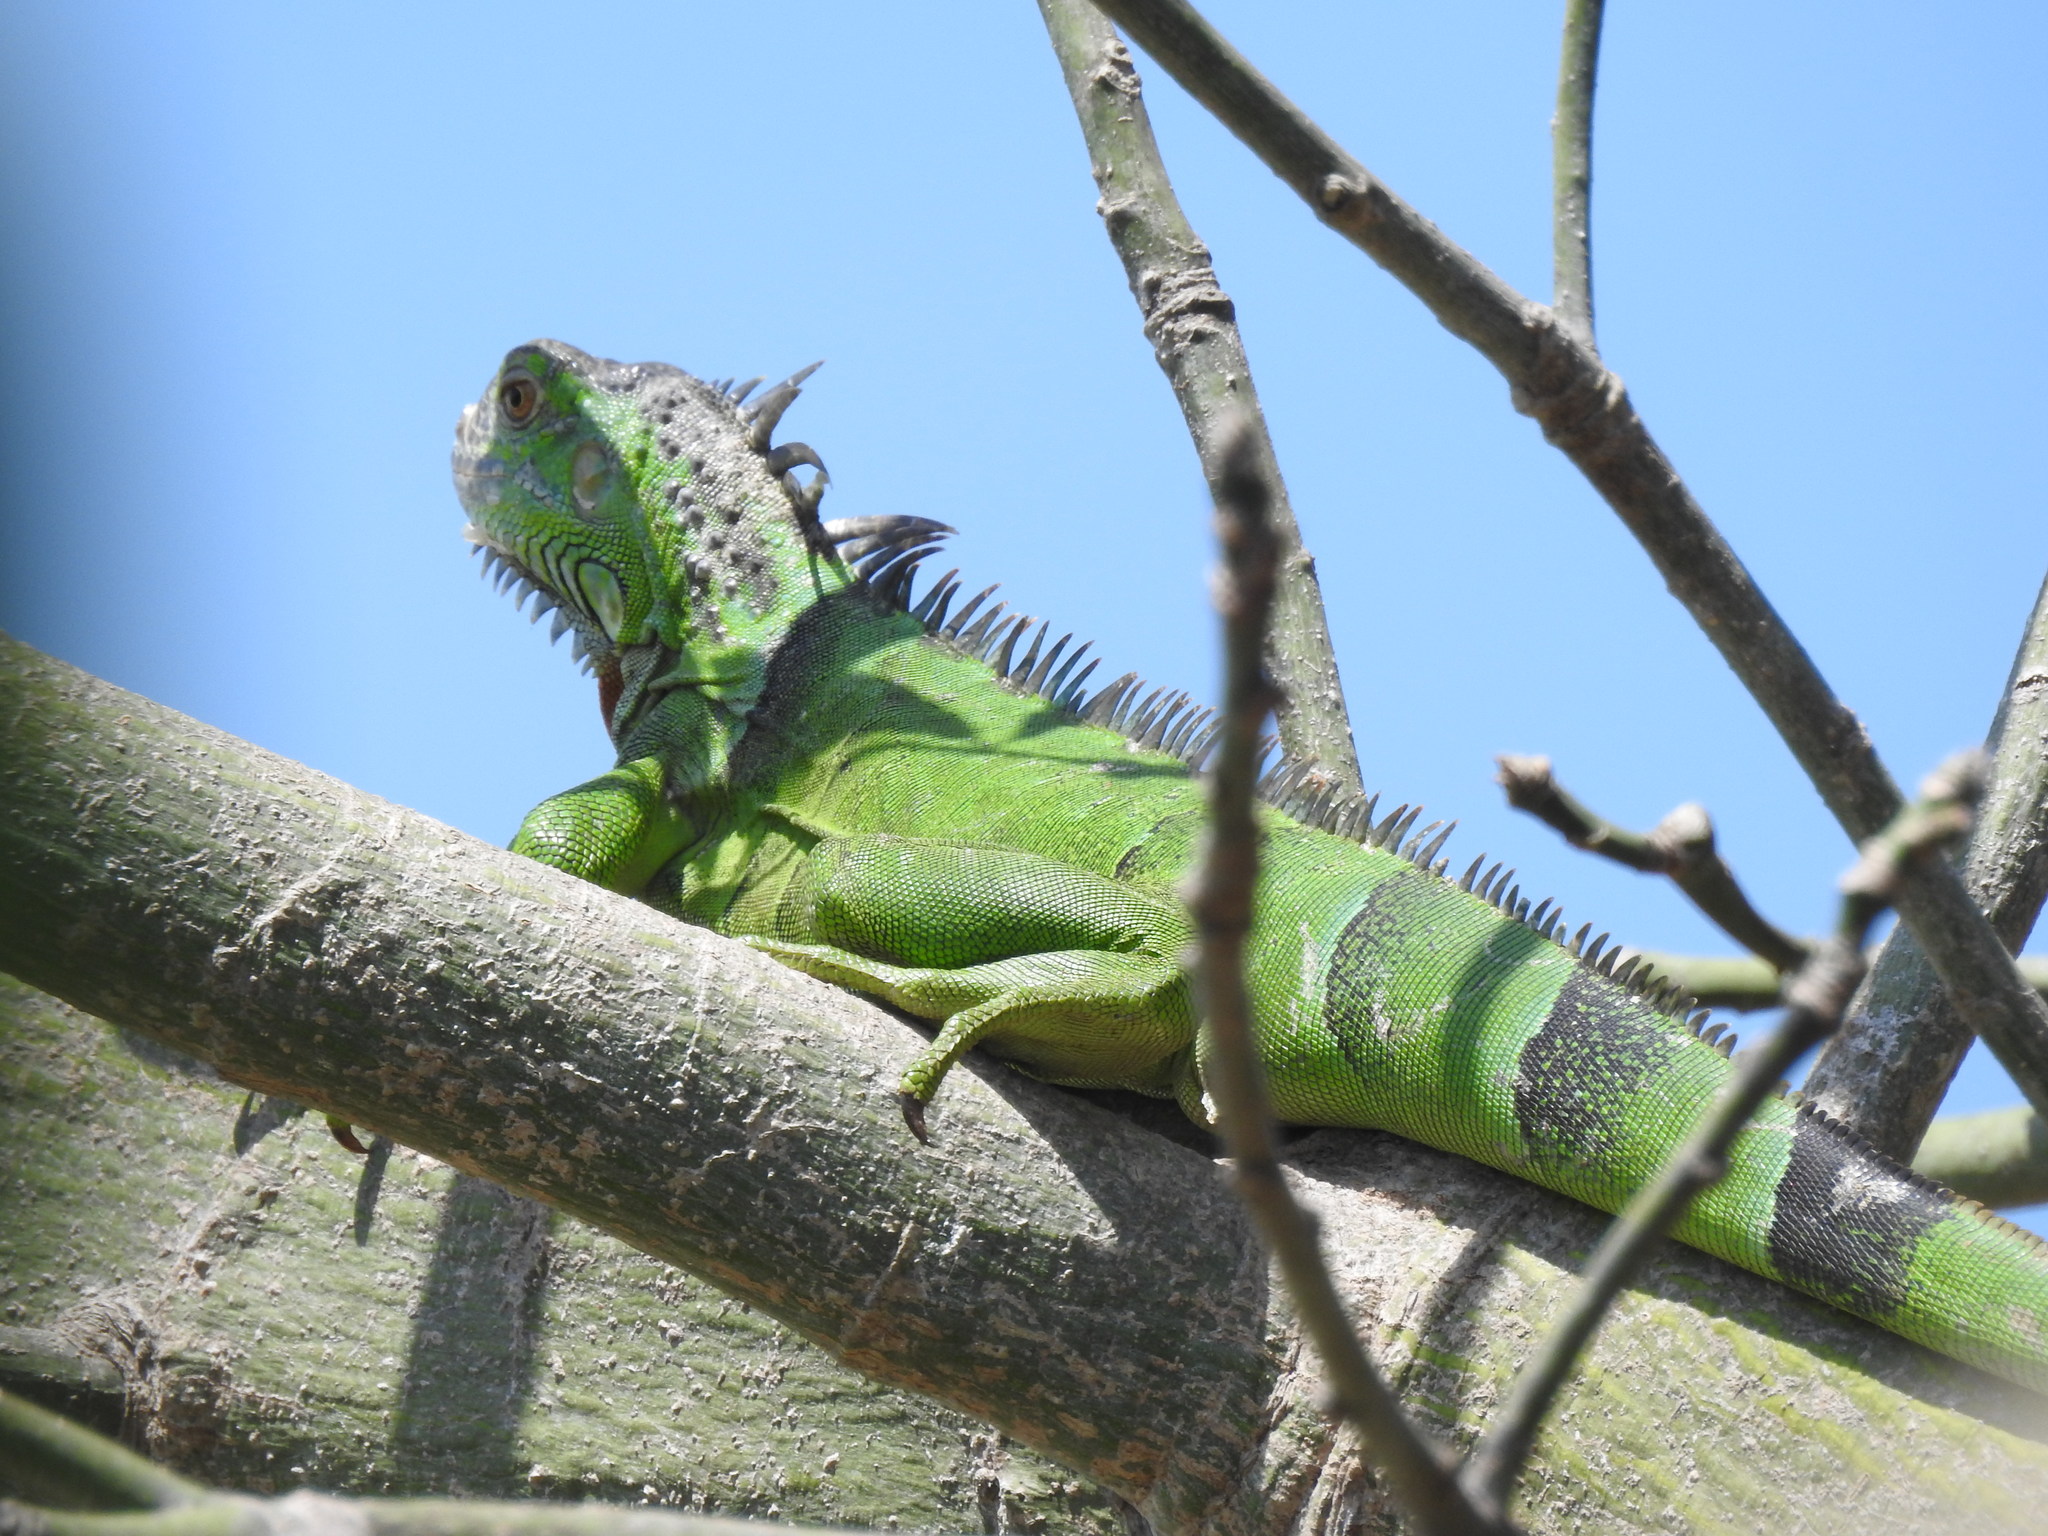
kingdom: Animalia
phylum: Chordata
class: Squamata
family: Iguanidae
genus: Iguana
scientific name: Iguana iguana
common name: Green iguana
